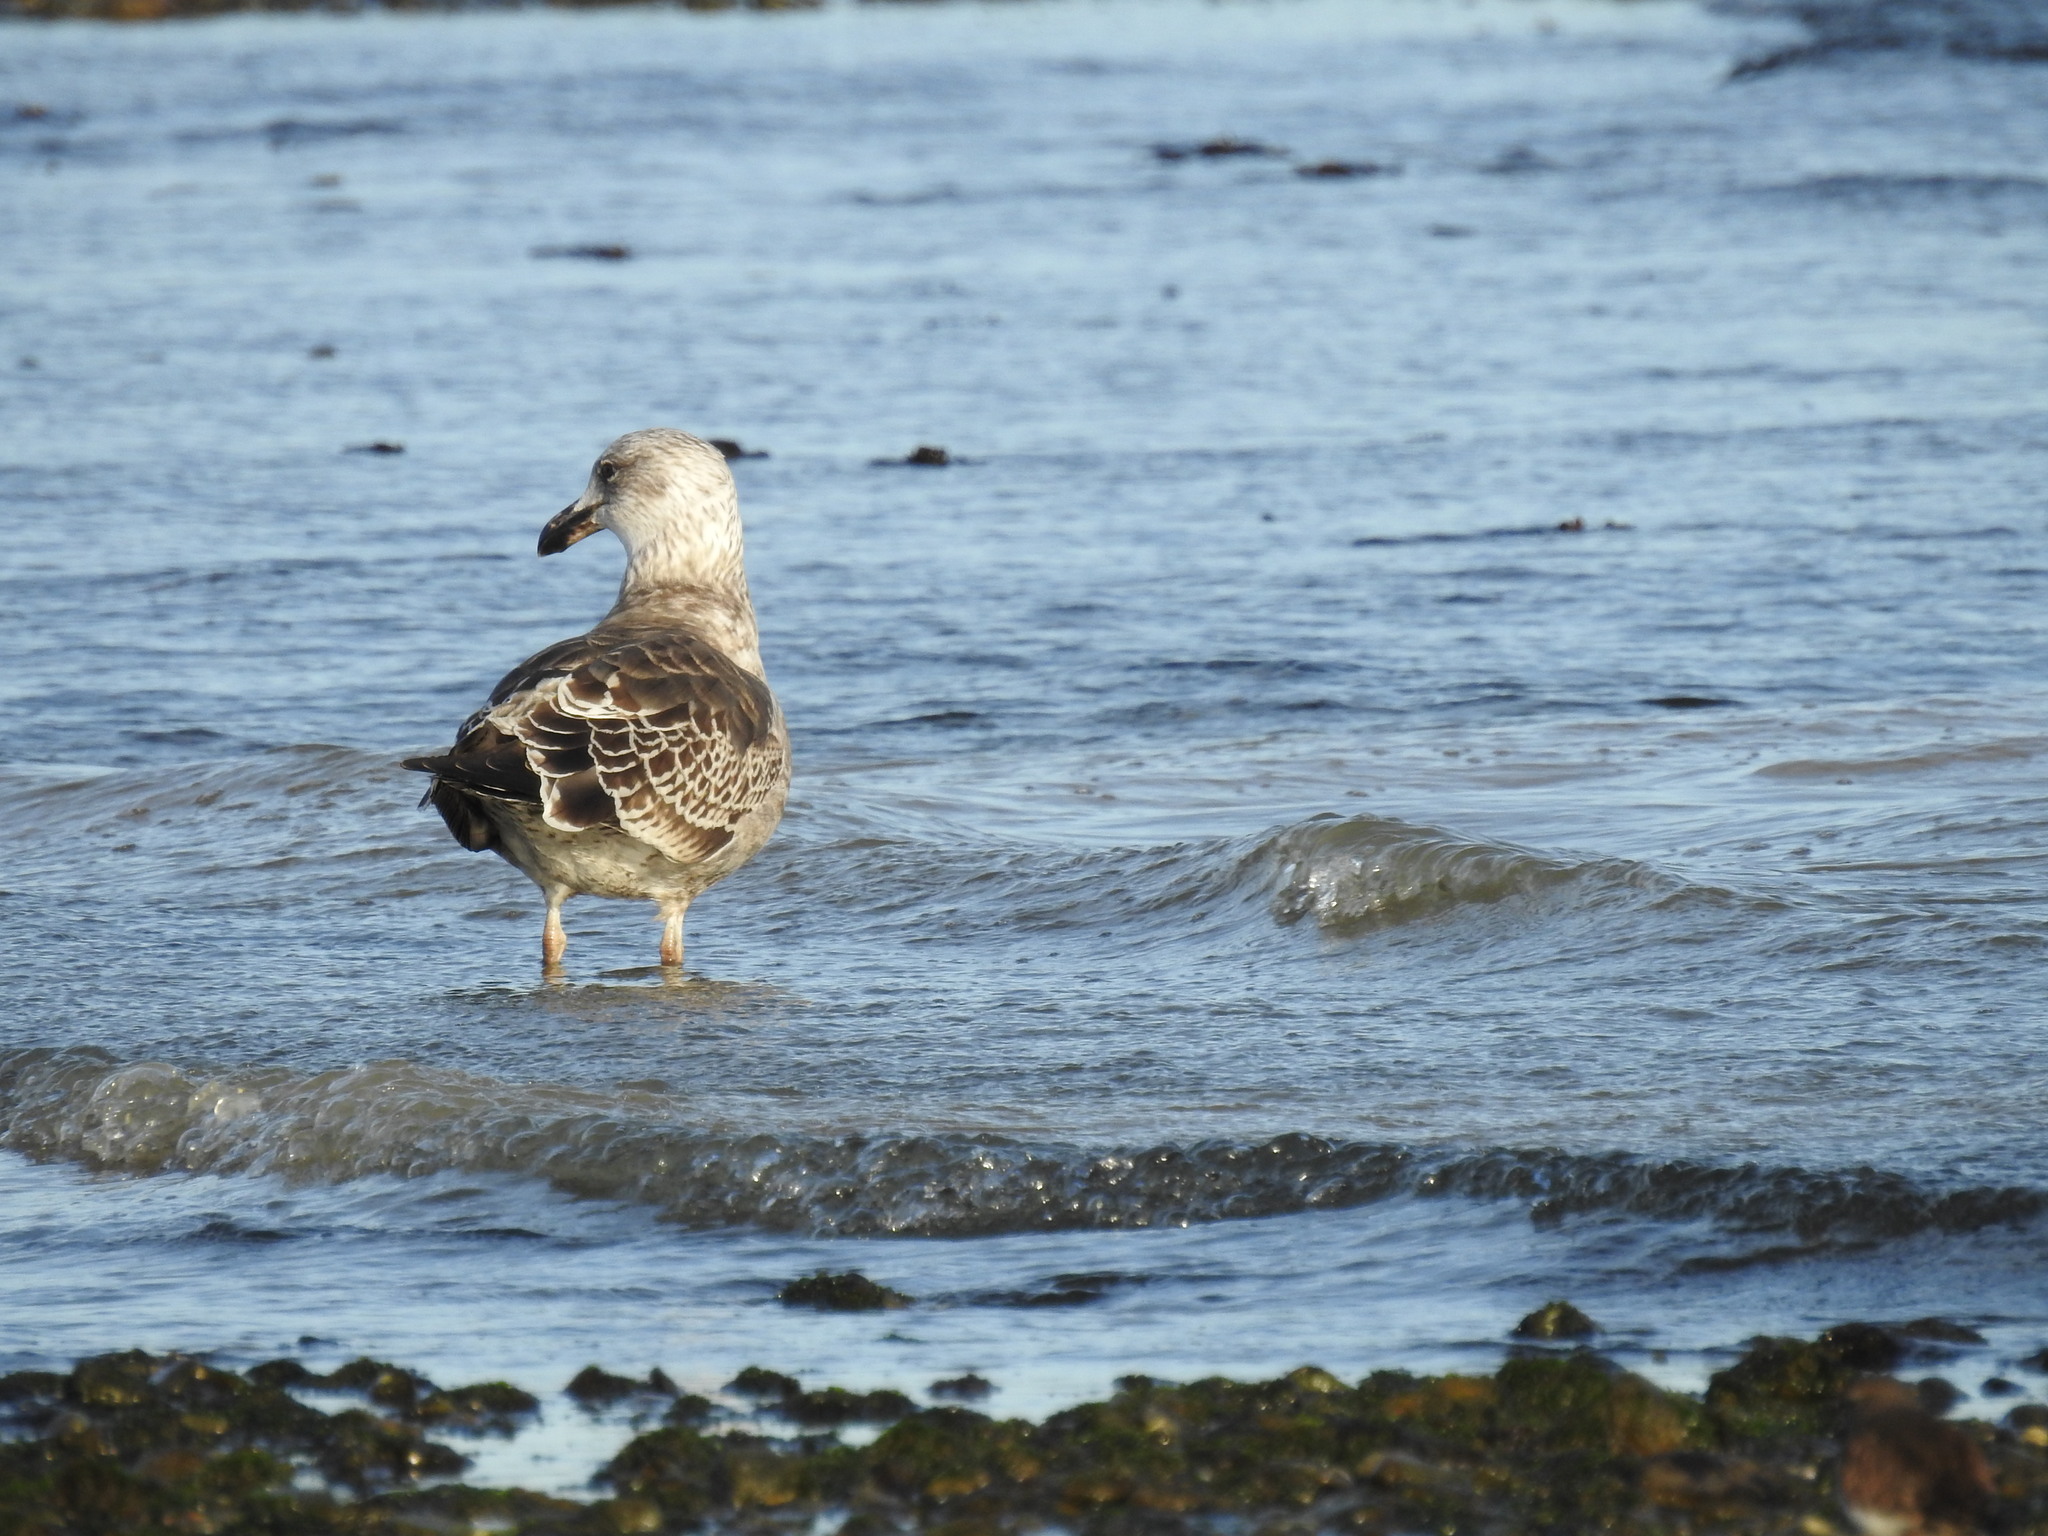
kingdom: Animalia
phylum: Chordata
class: Aves
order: Charadriiformes
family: Laridae
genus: Larus
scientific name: Larus dominicanus
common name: Kelp gull
